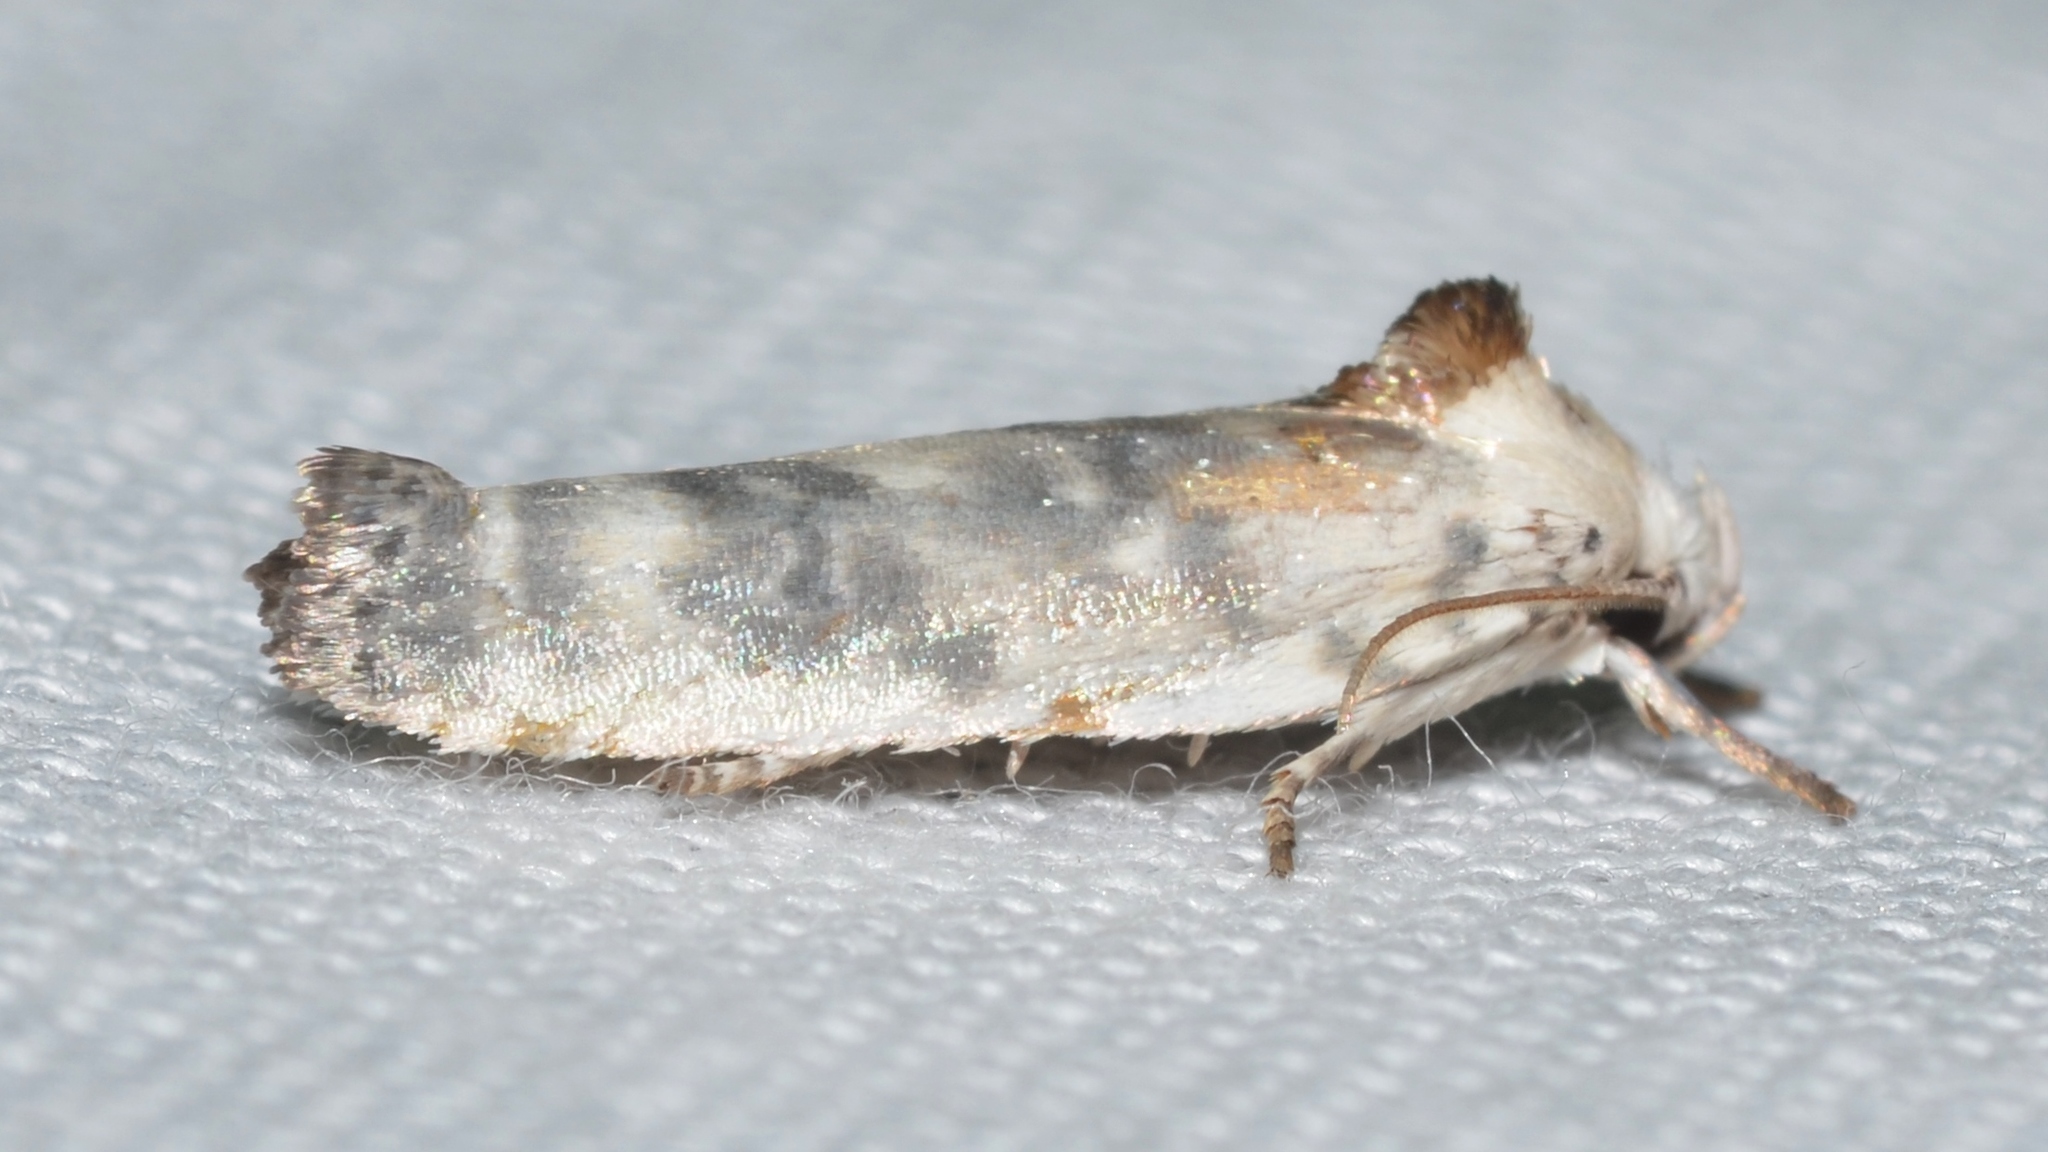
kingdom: Animalia
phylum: Arthropoda
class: Insecta
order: Lepidoptera
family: Depressariidae
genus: Antaeotricha
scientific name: Antaeotricha leucillana
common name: Pale gray bird-dropping moth
